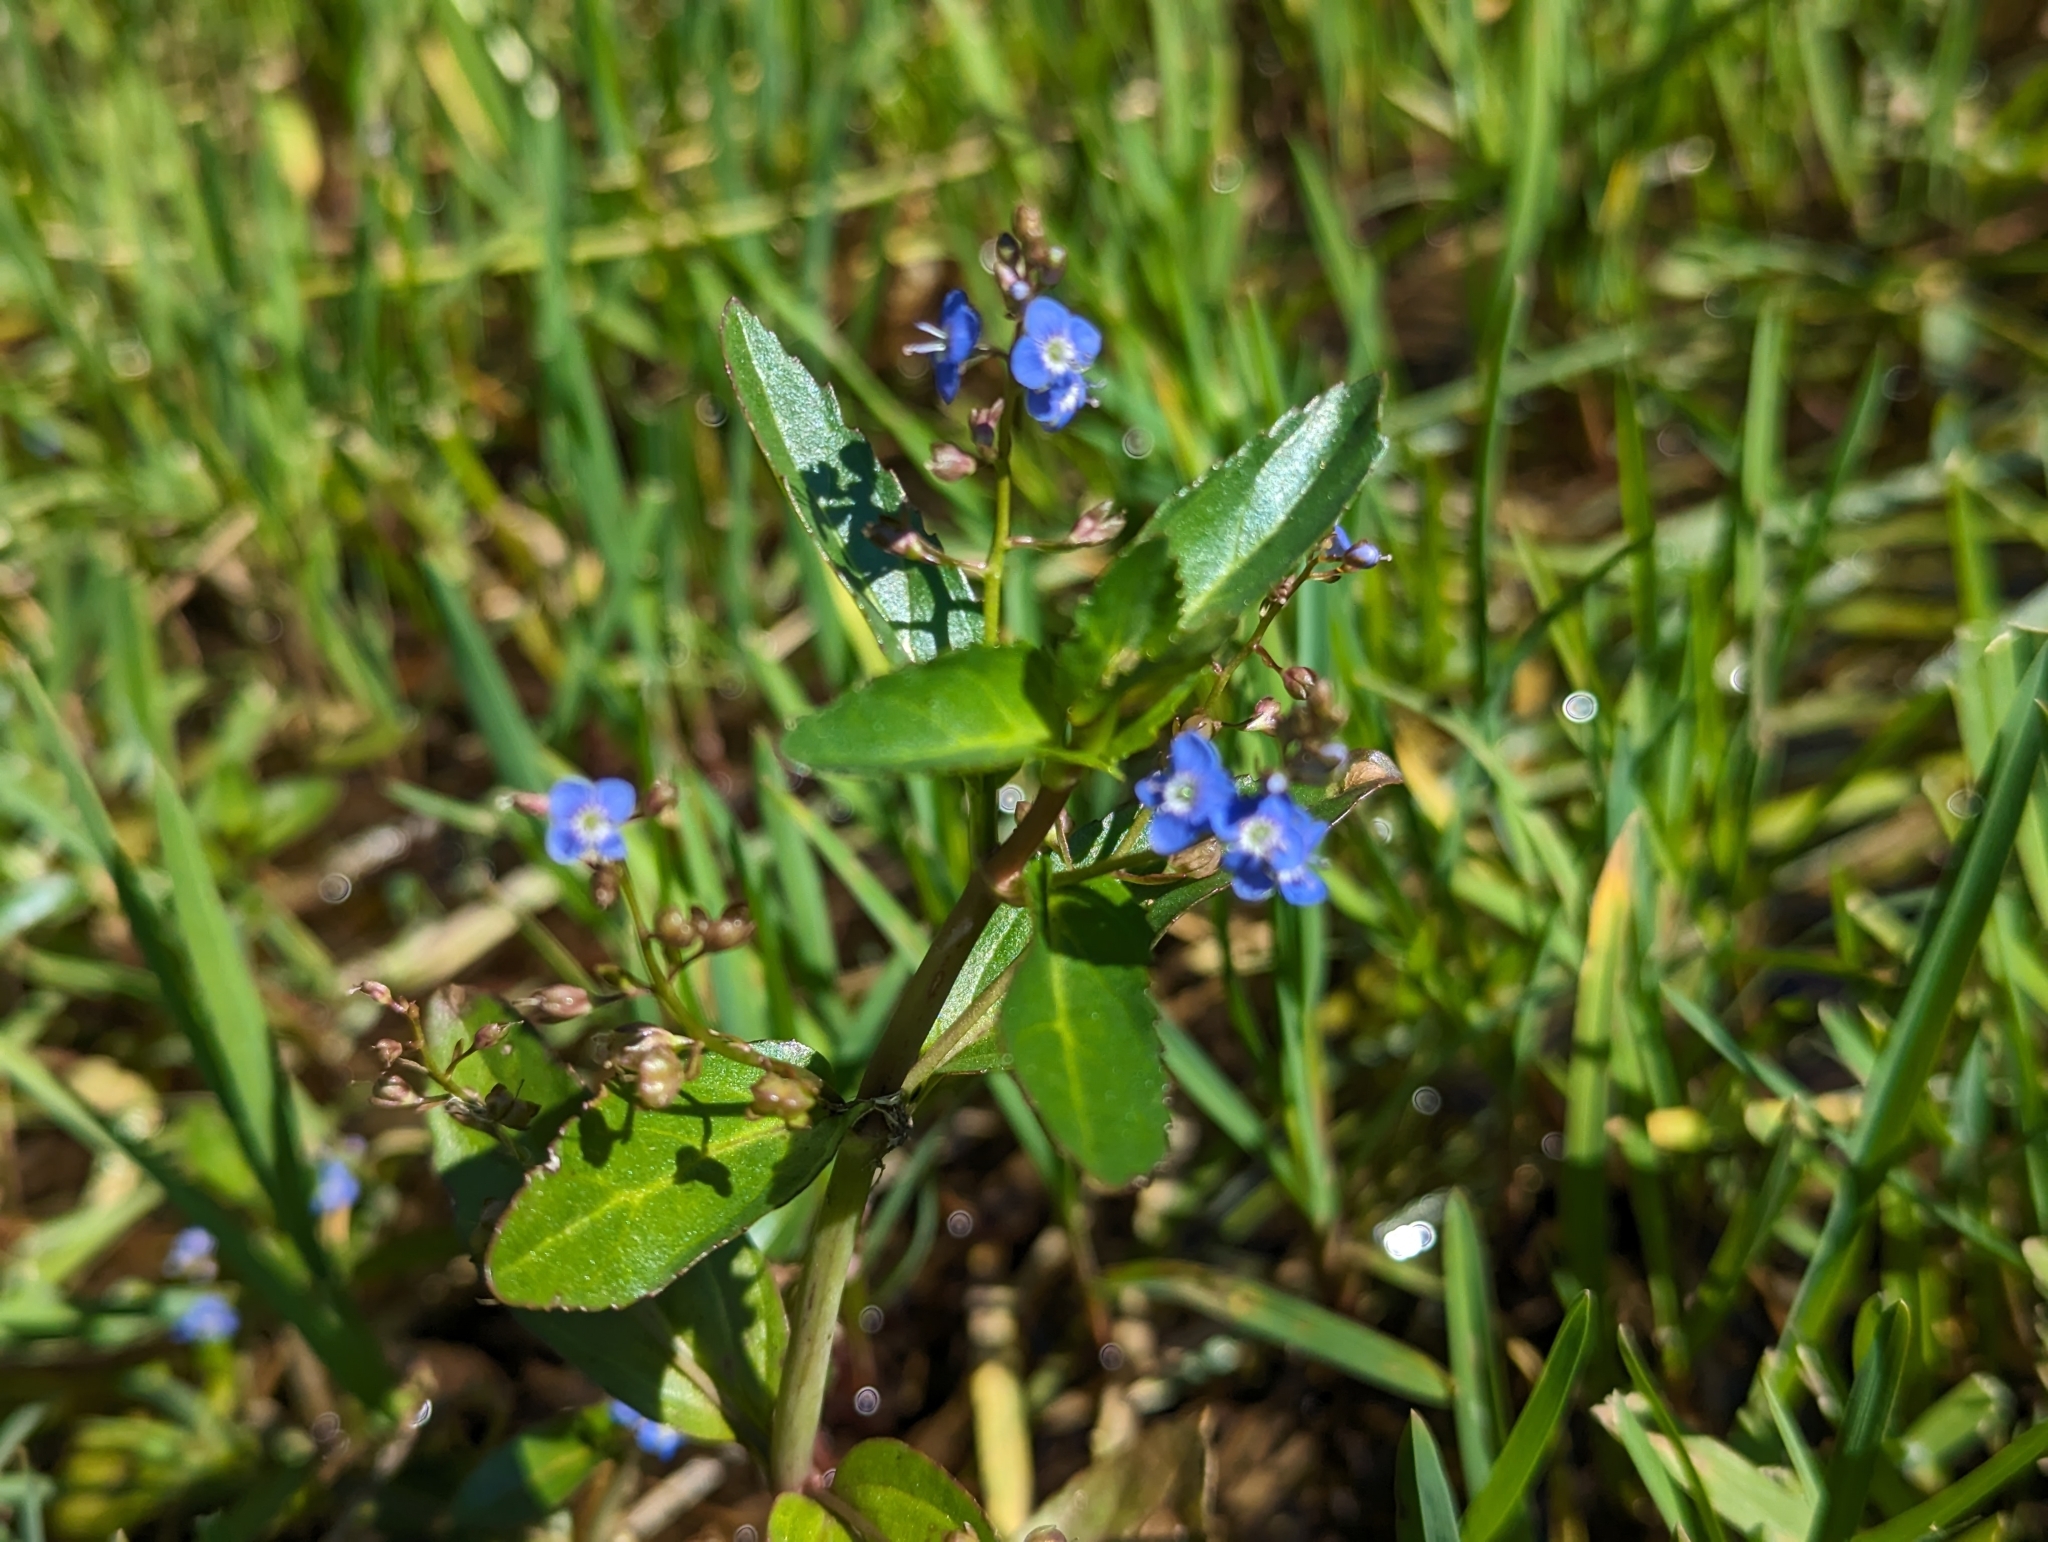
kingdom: Plantae
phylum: Tracheophyta
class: Magnoliopsida
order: Lamiales
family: Plantaginaceae
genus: Veronica
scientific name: Veronica beccabunga
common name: Brooklime
